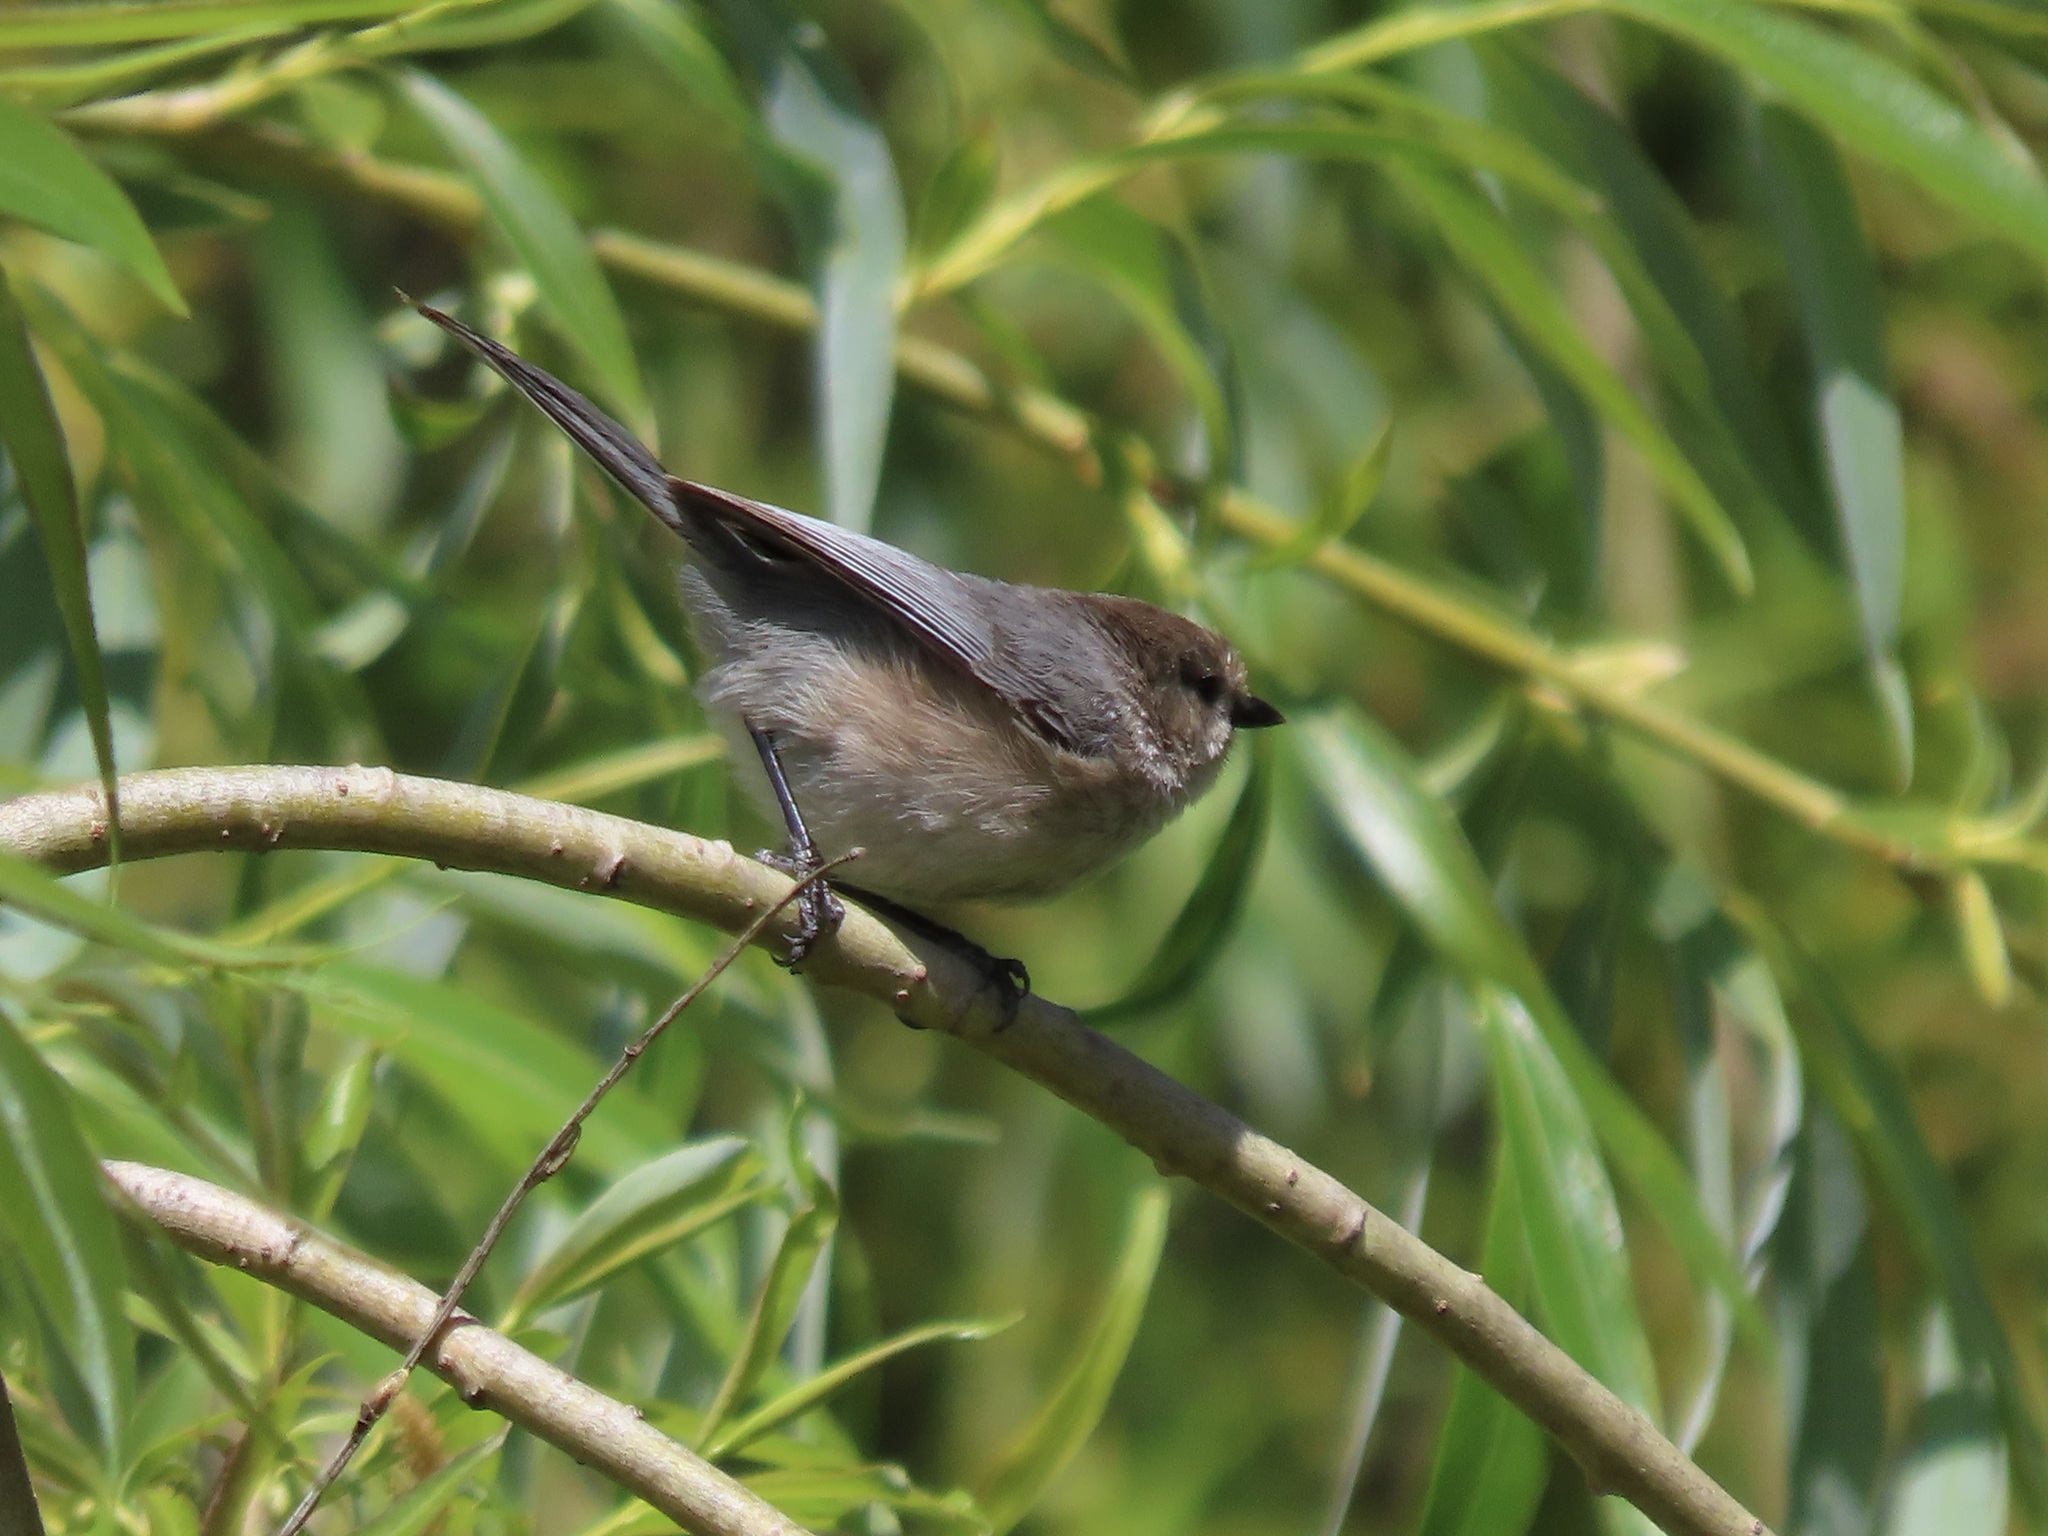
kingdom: Animalia
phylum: Chordata
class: Aves
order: Passeriformes
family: Aegithalidae
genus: Psaltriparus
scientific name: Psaltriparus minimus
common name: American bushtit
